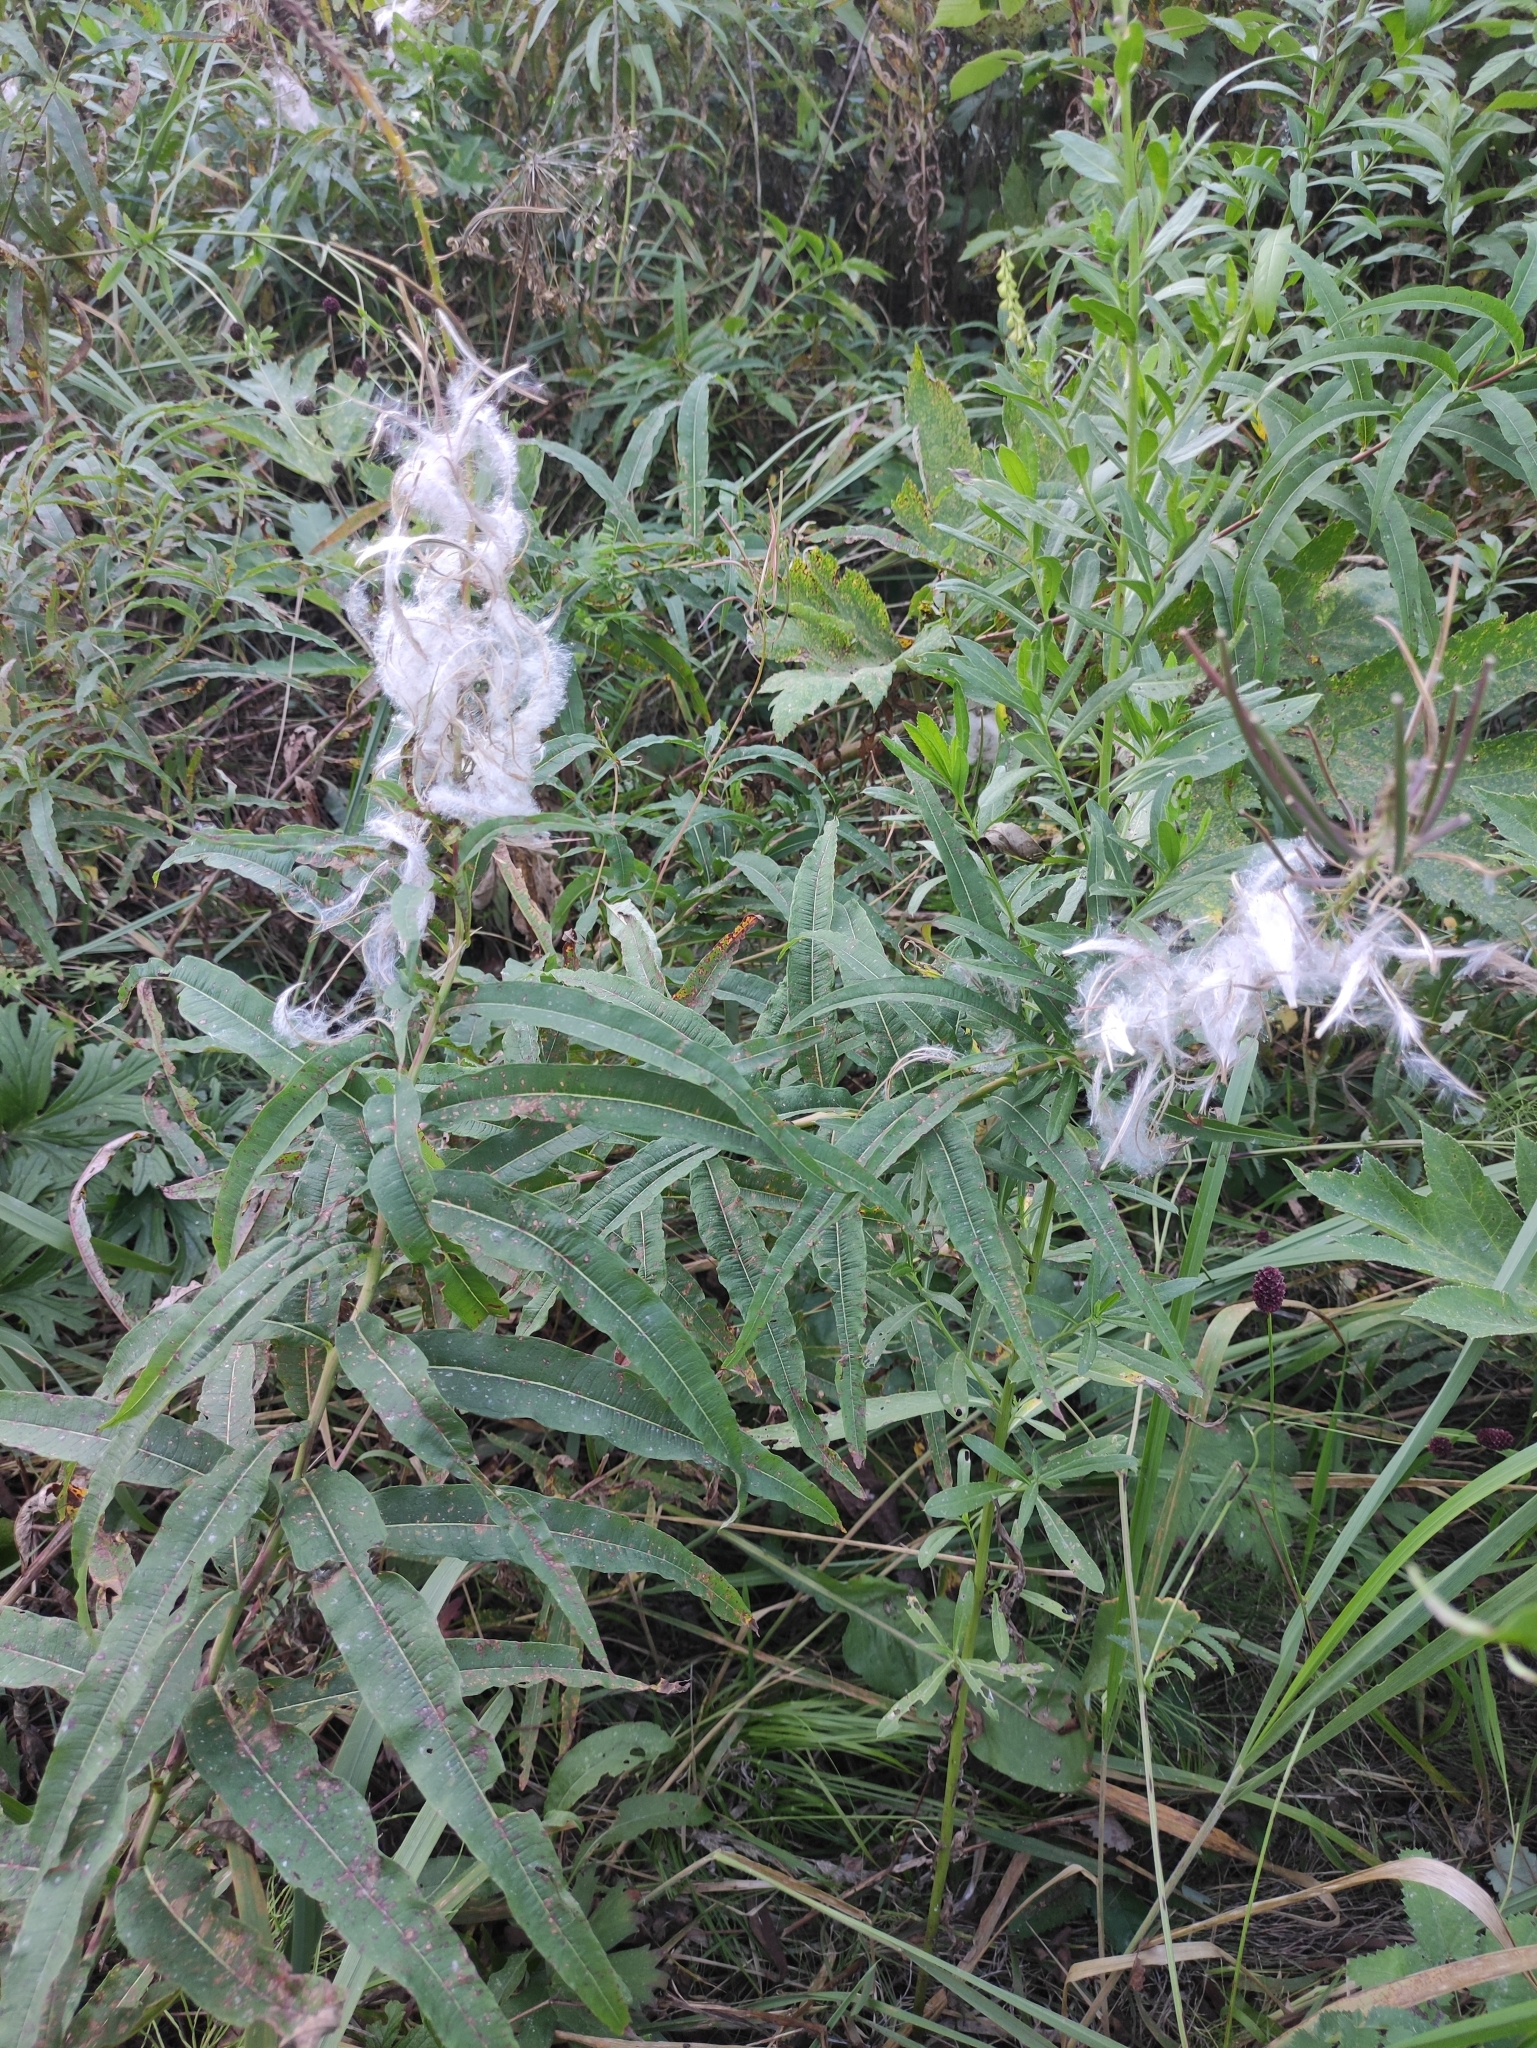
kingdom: Plantae
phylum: Tracheophyta
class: Magnoliopsida
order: Myrtales
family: Onagraceae
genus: Chamaenerion
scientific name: Chamaenerion angustifolium
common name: Fireweed
